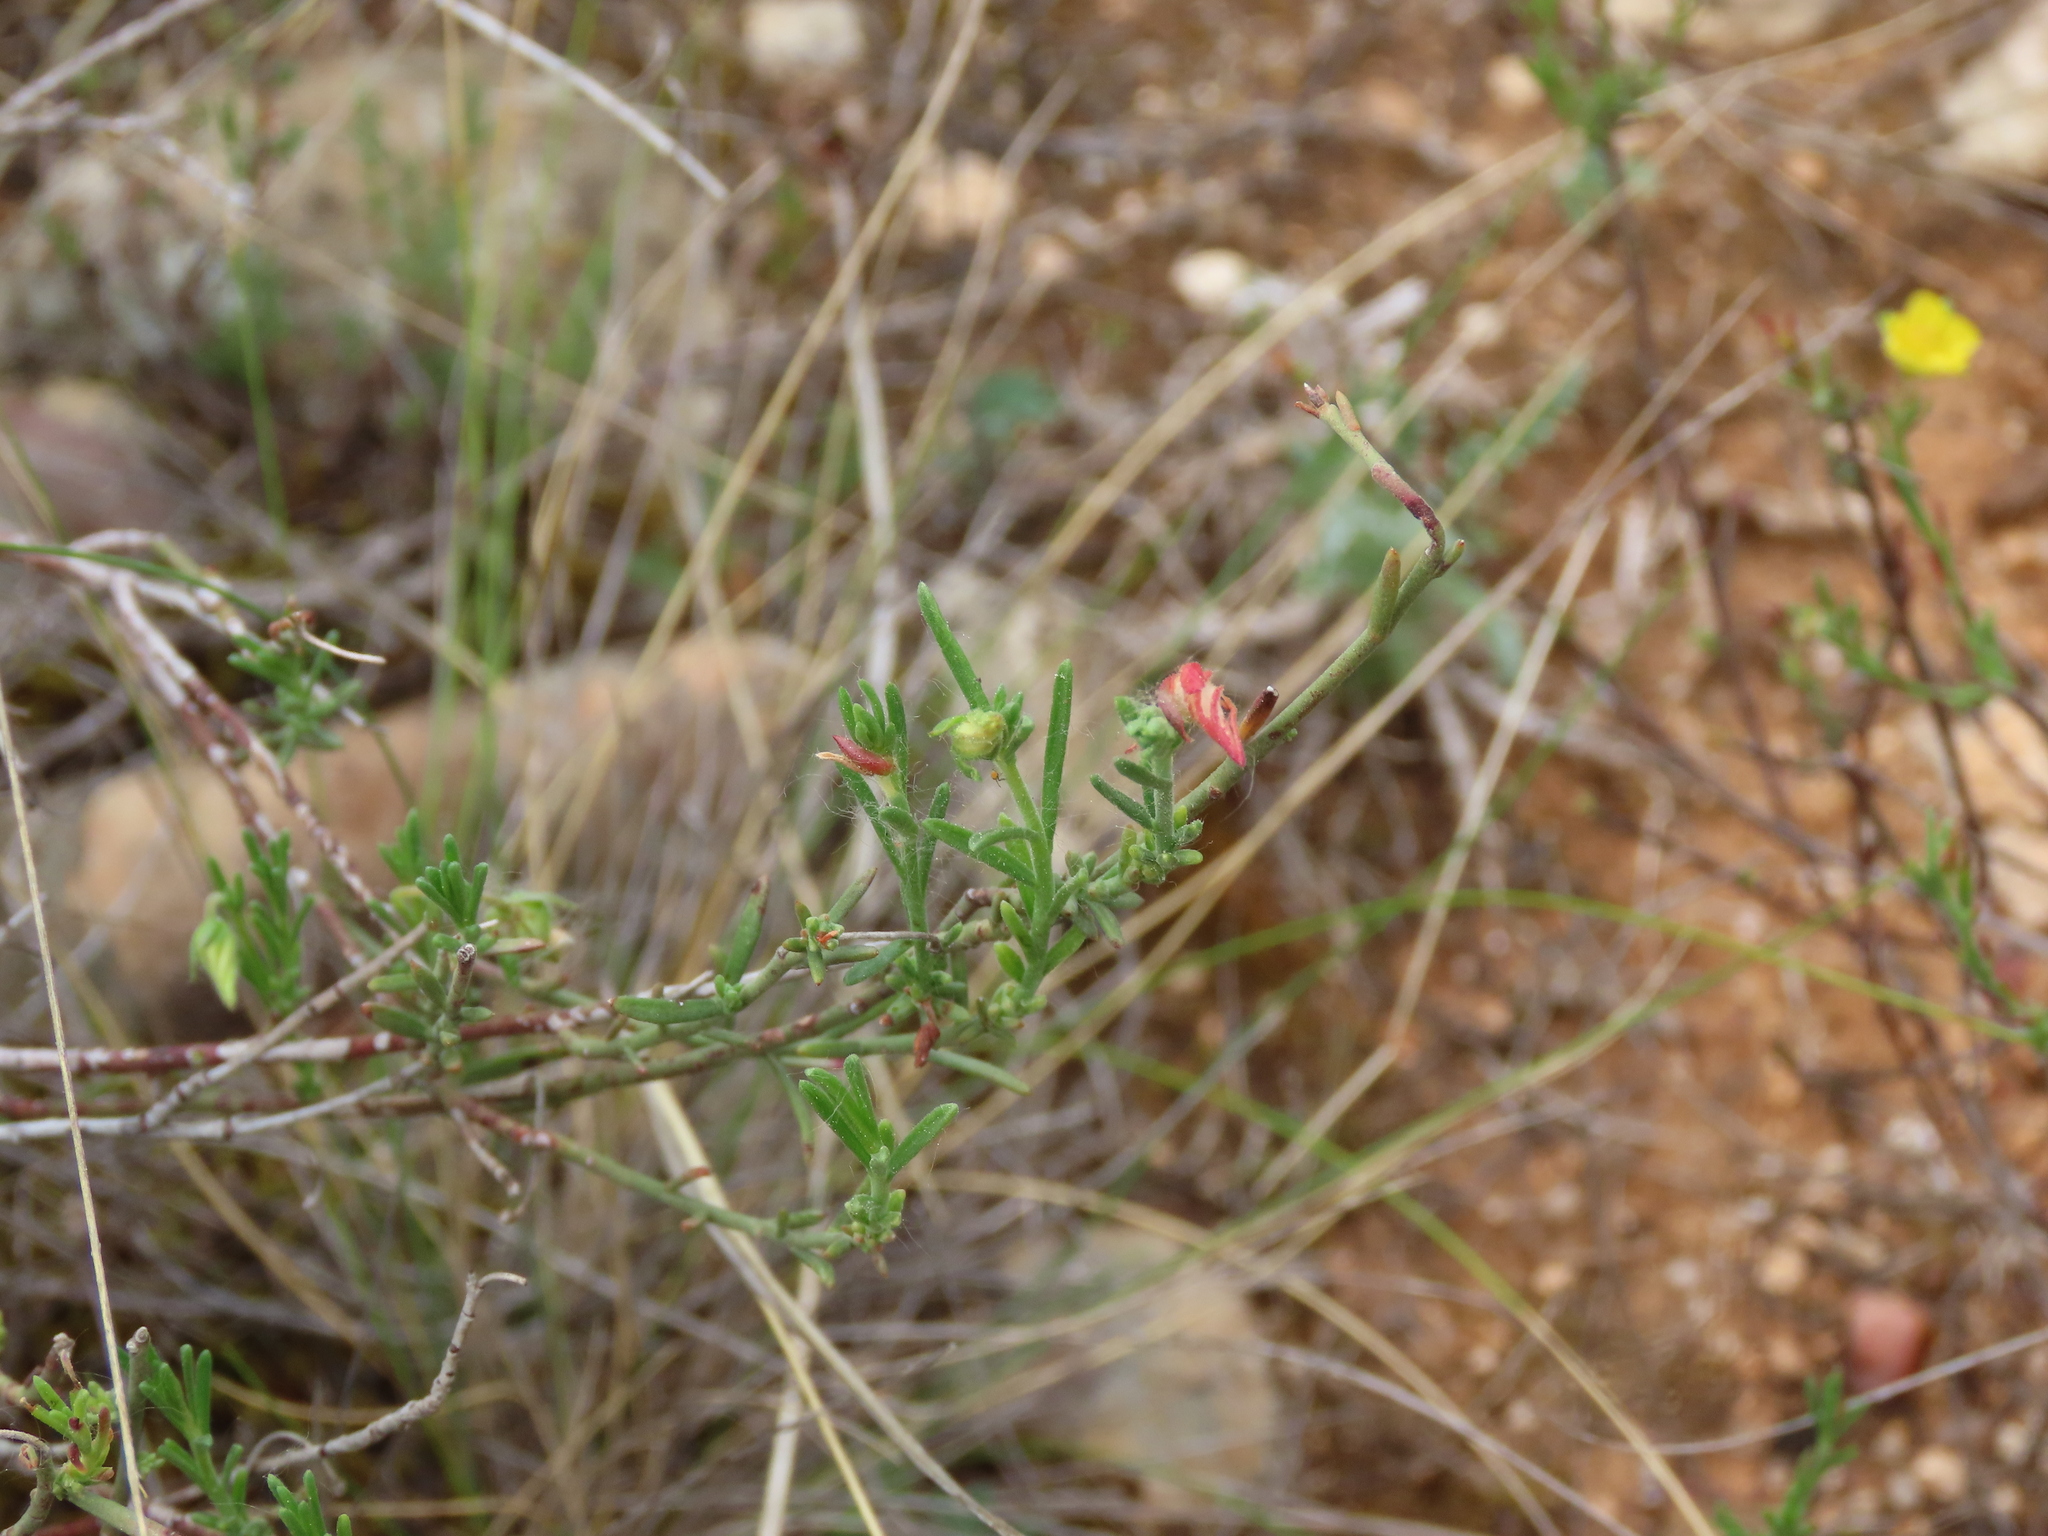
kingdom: Plantae
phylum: Tracheophyta
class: Magnoliopsida
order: Malvales
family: Cistaceae
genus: Fumana
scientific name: Fumana ericifolia
